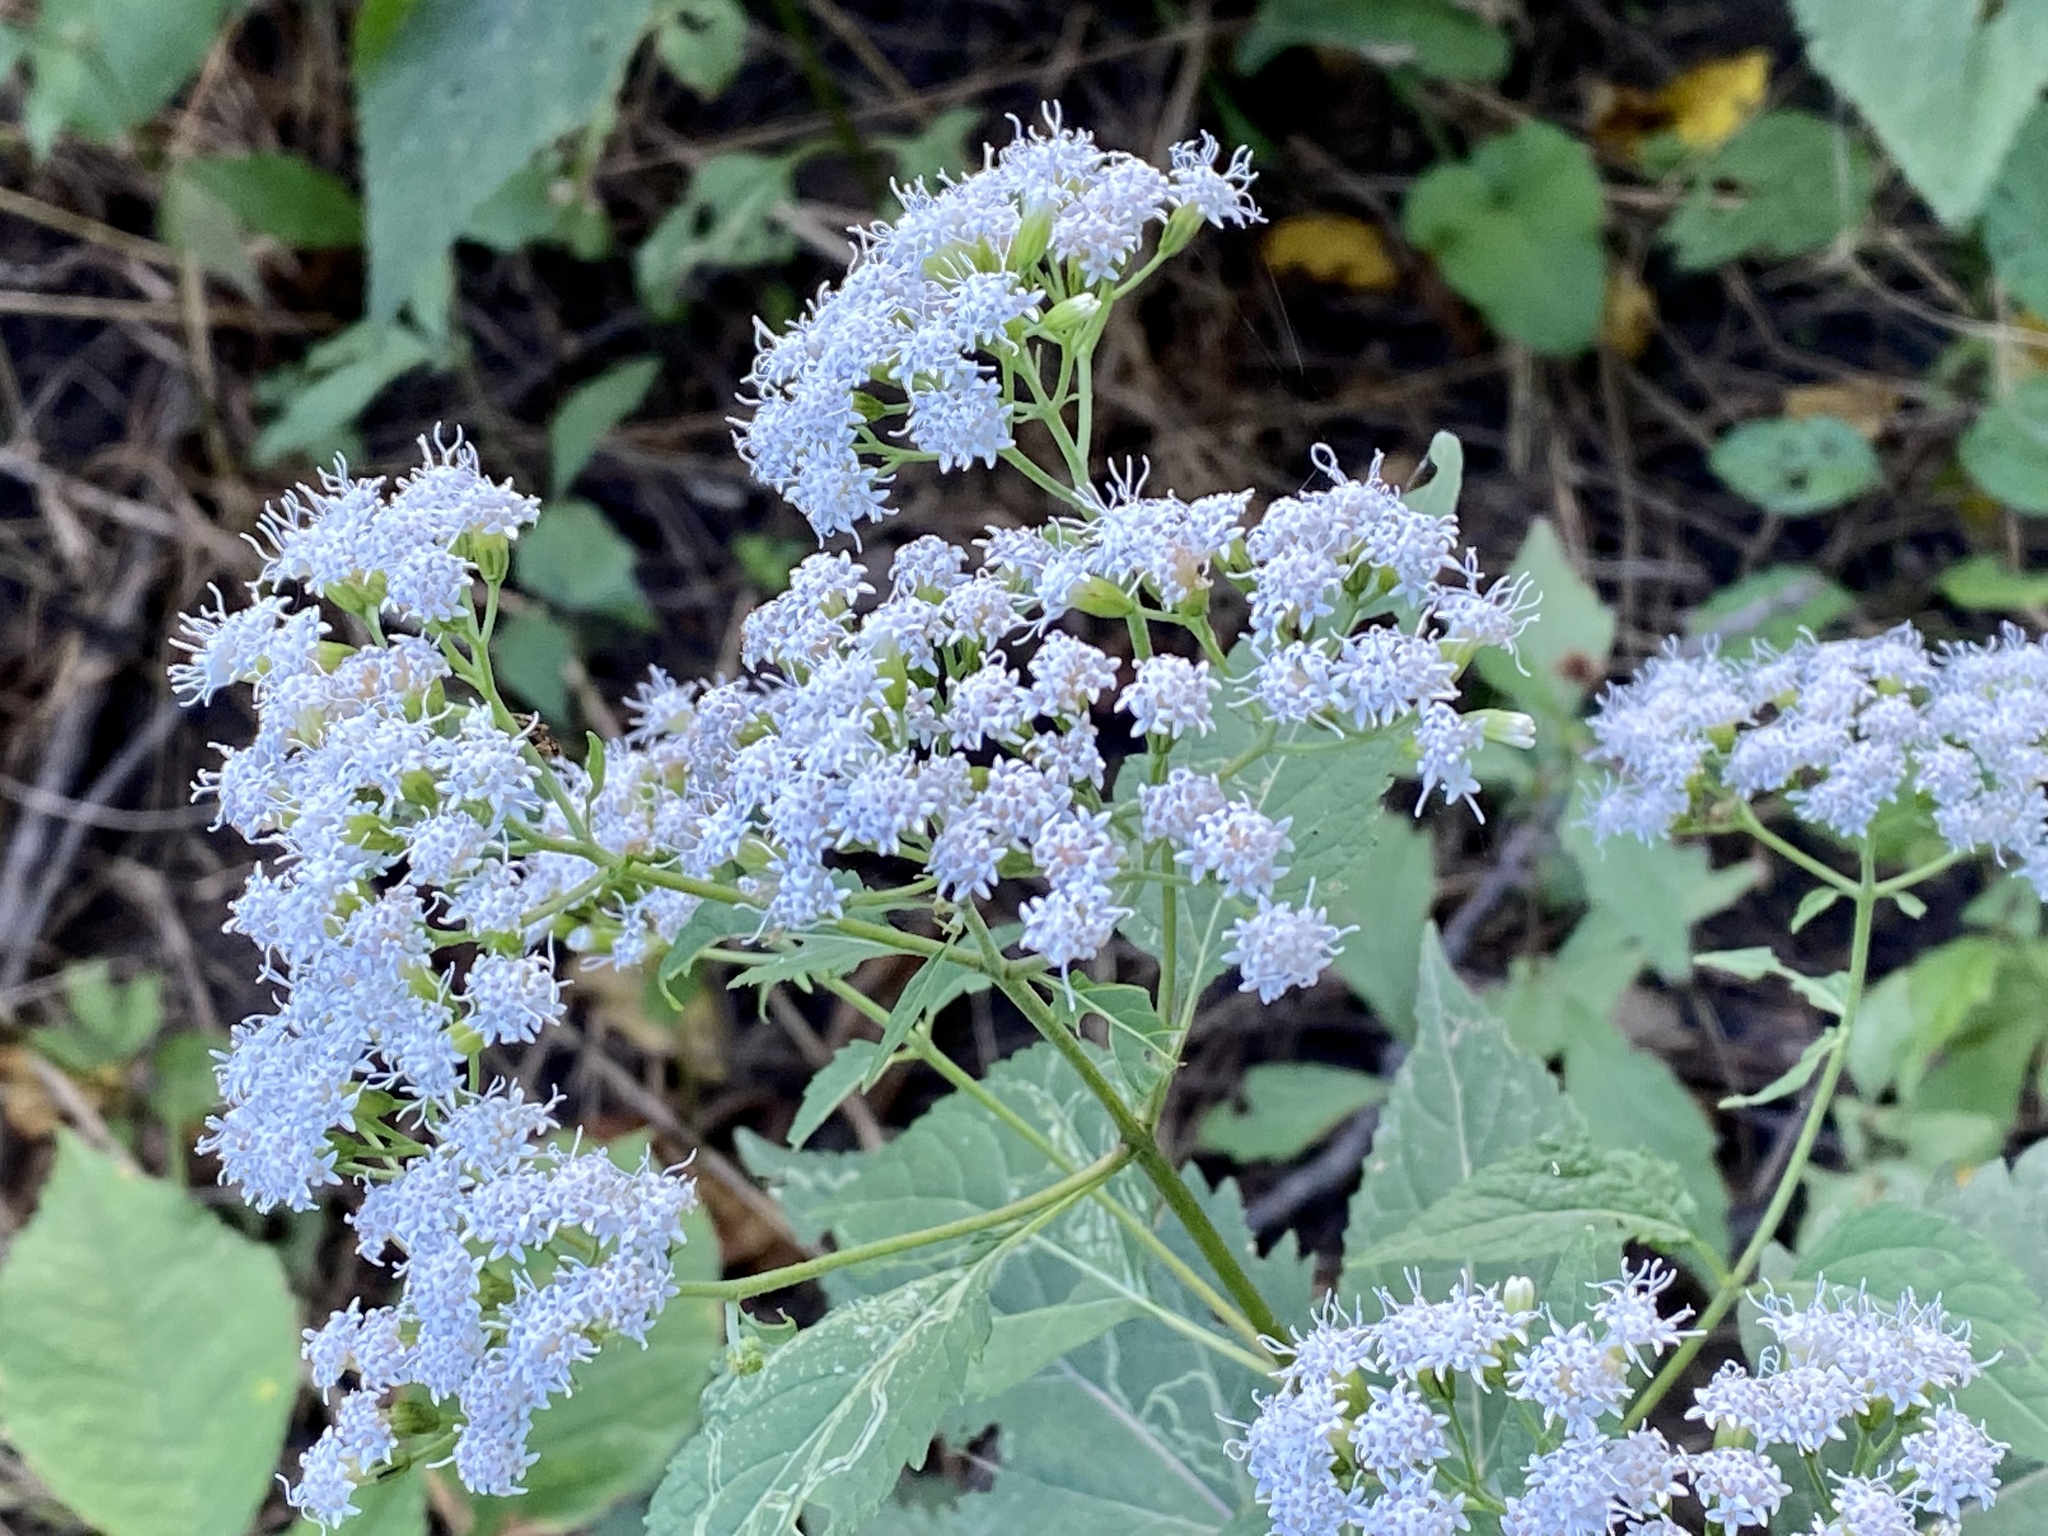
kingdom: Plantae
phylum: Tracheophyta
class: Magnoliopsida
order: Asterales
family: Asteraceae
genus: Ageratina
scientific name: Ageratina altissima
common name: White snakeroot
